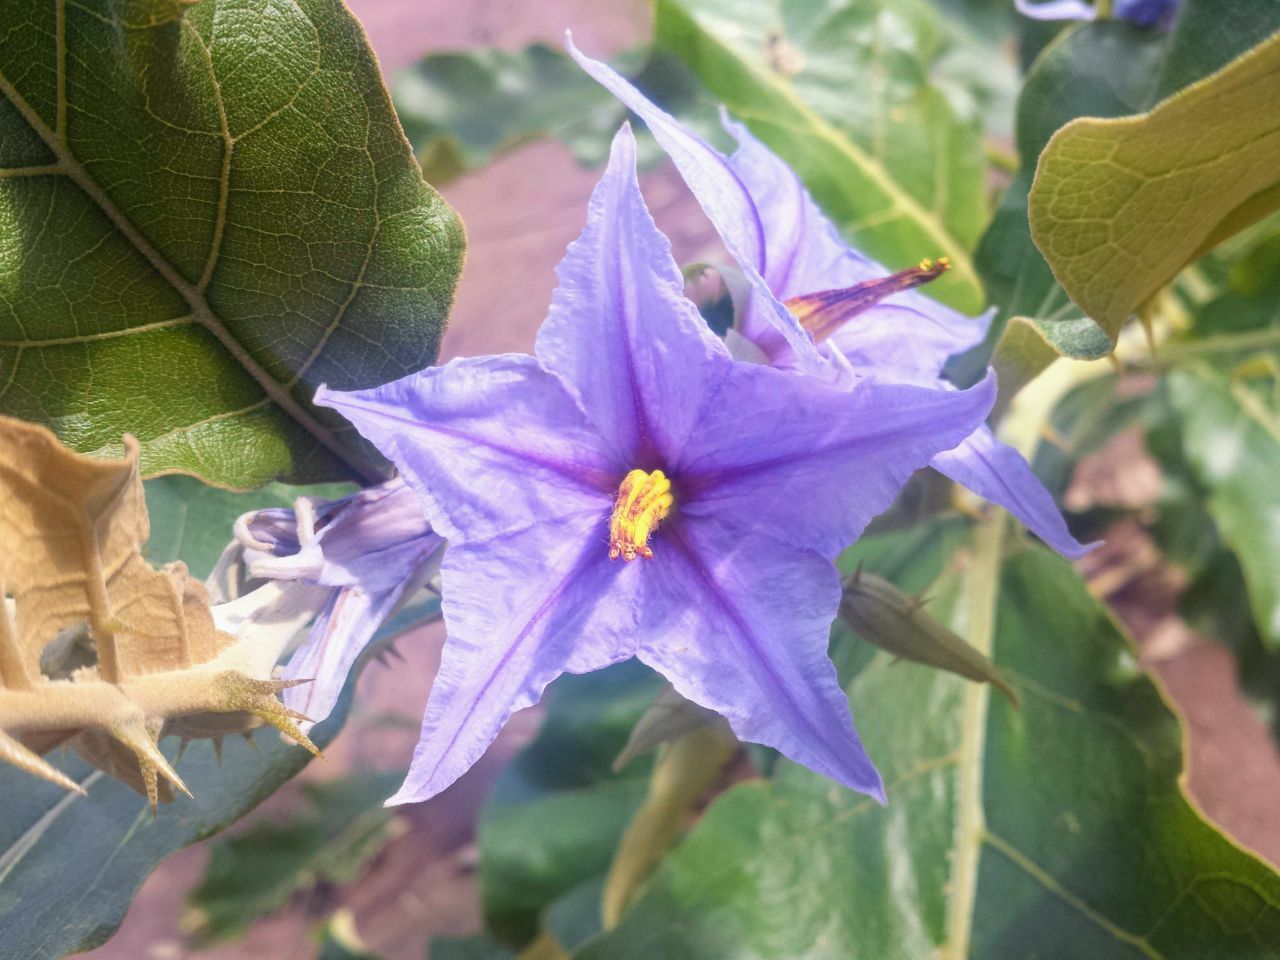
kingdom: Plantae
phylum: Tracheophyta
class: Magnoliopsida
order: Solanales
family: Solanaceae
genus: Solanum
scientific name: Solanum lycocarpum
